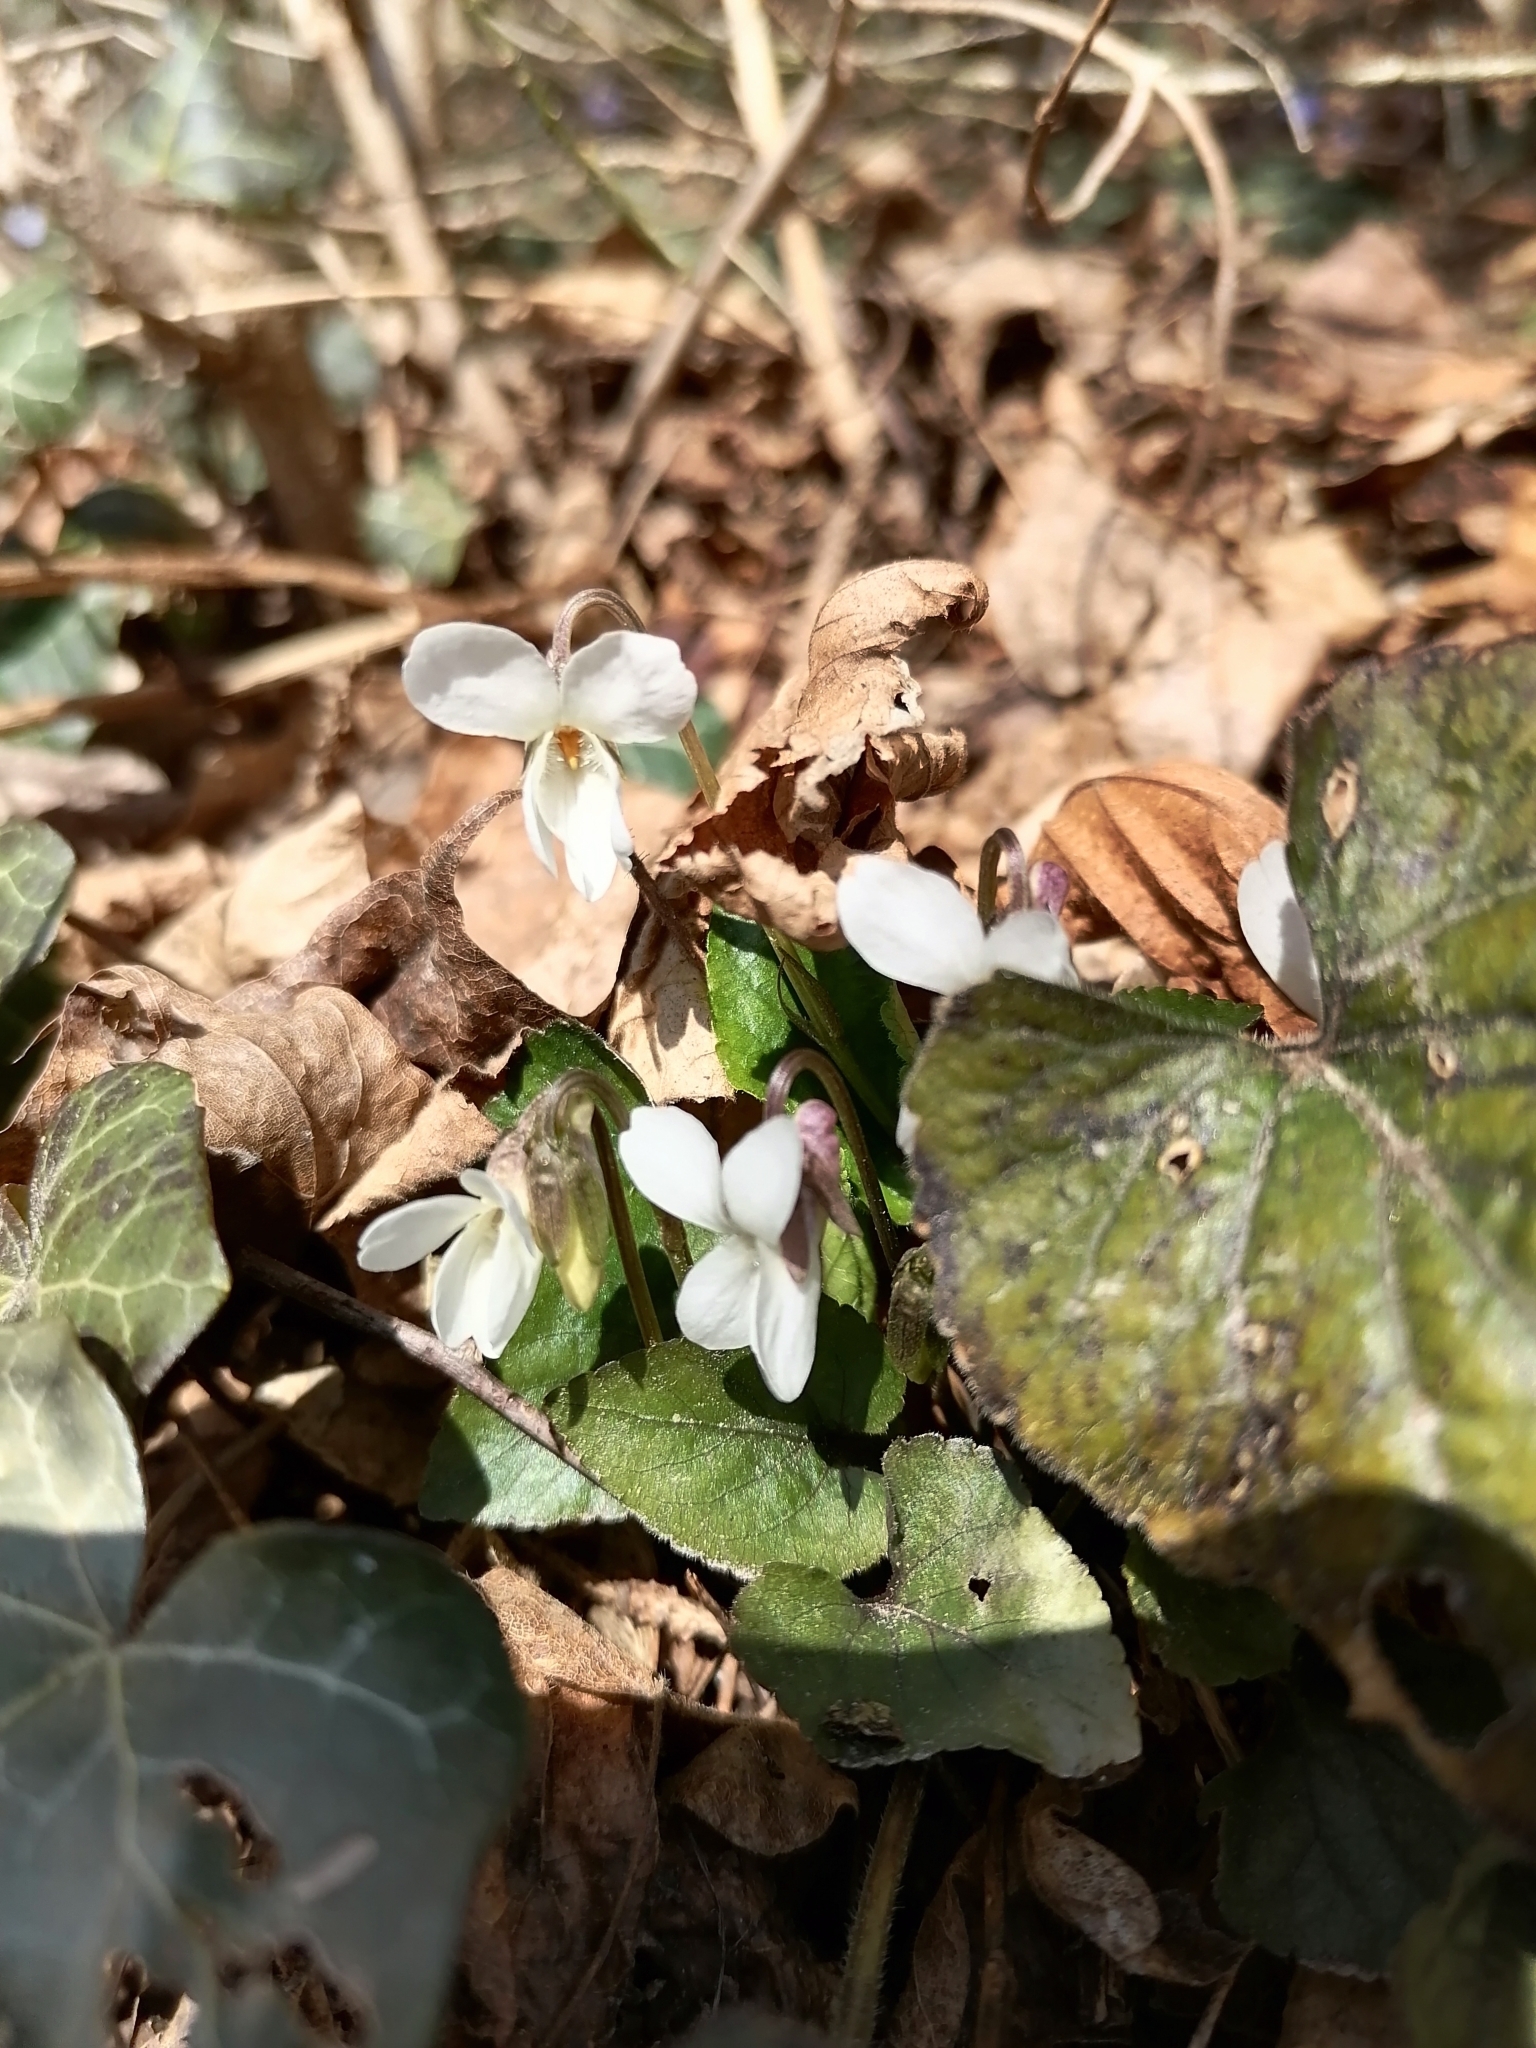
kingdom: Plantae
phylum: Tracheophyta
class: Magnoliopsida
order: Malpighiales
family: Violaceae
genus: Viola
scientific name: Viola alba
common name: White violet
